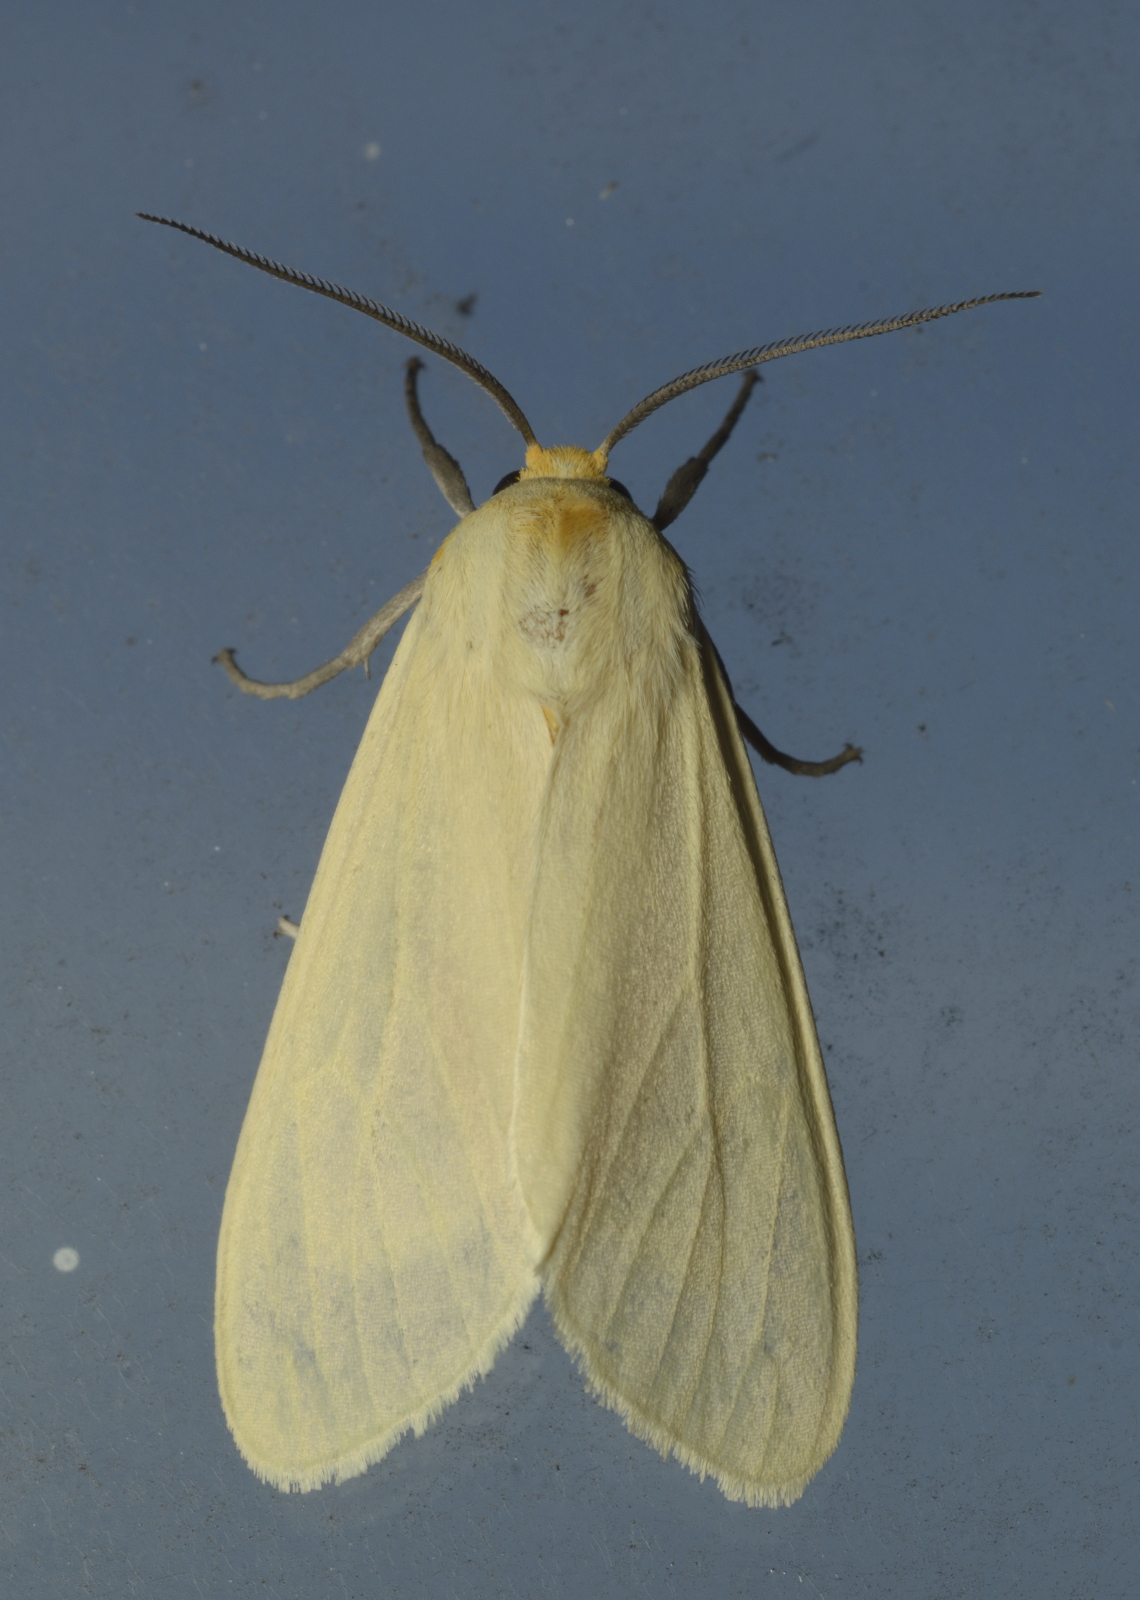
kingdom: Animalia
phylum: Arthropoda
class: Insecta
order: Lepidoptera
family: Erebidae
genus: Pareuchaetes
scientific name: Pareuchaetes pseudoinsulata
